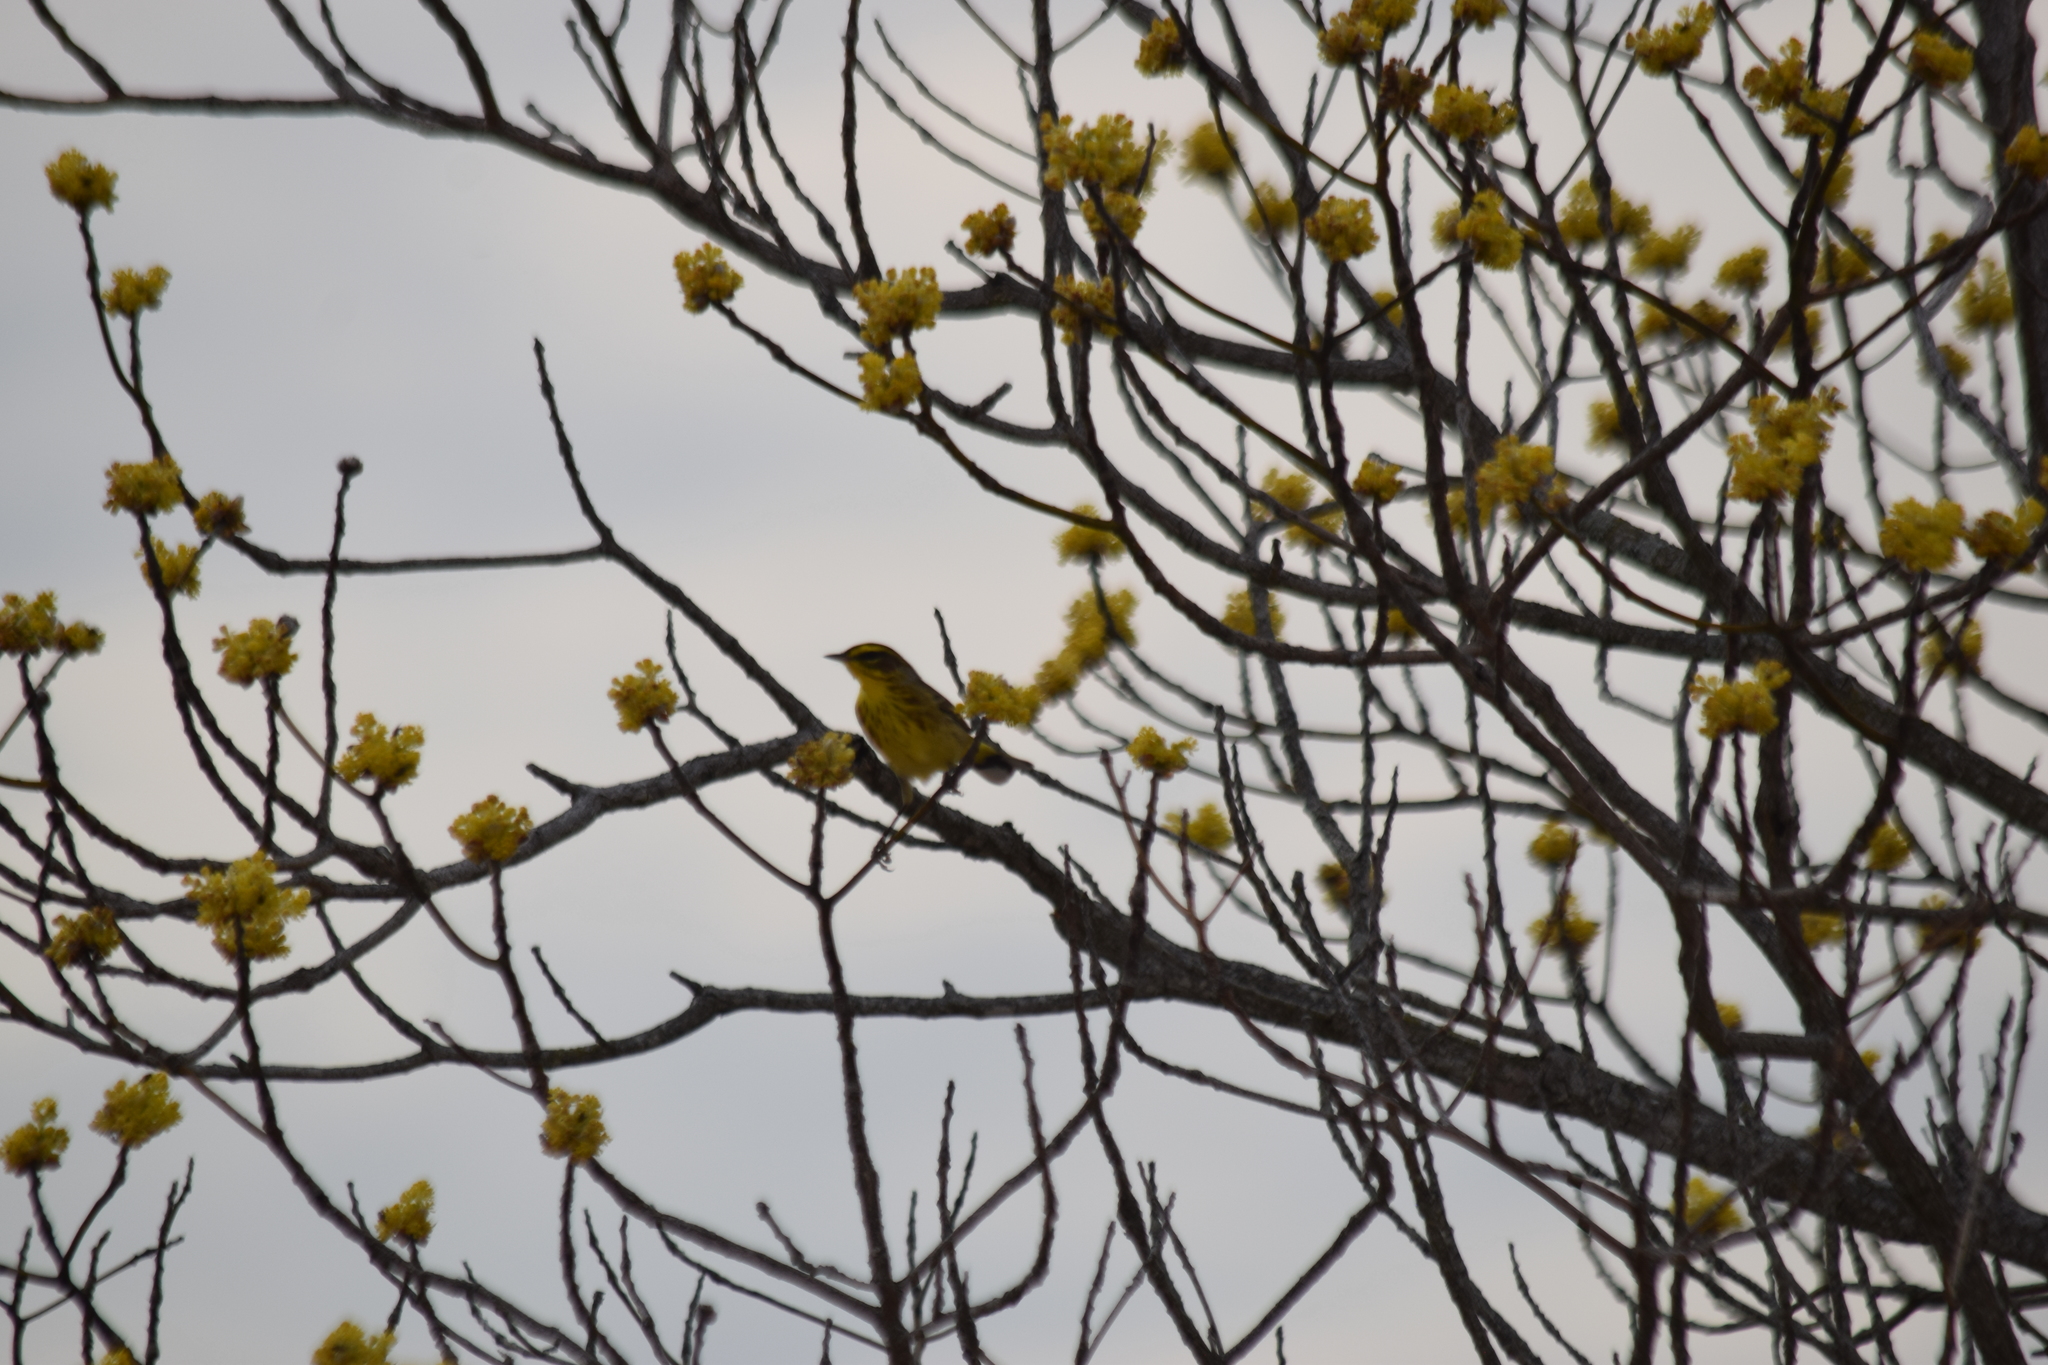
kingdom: Animalia
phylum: Chordata
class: Aves
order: Passeriformes
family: Parulidae
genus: Setophaga
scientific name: Setophaga palmarum
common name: Palm warbler
